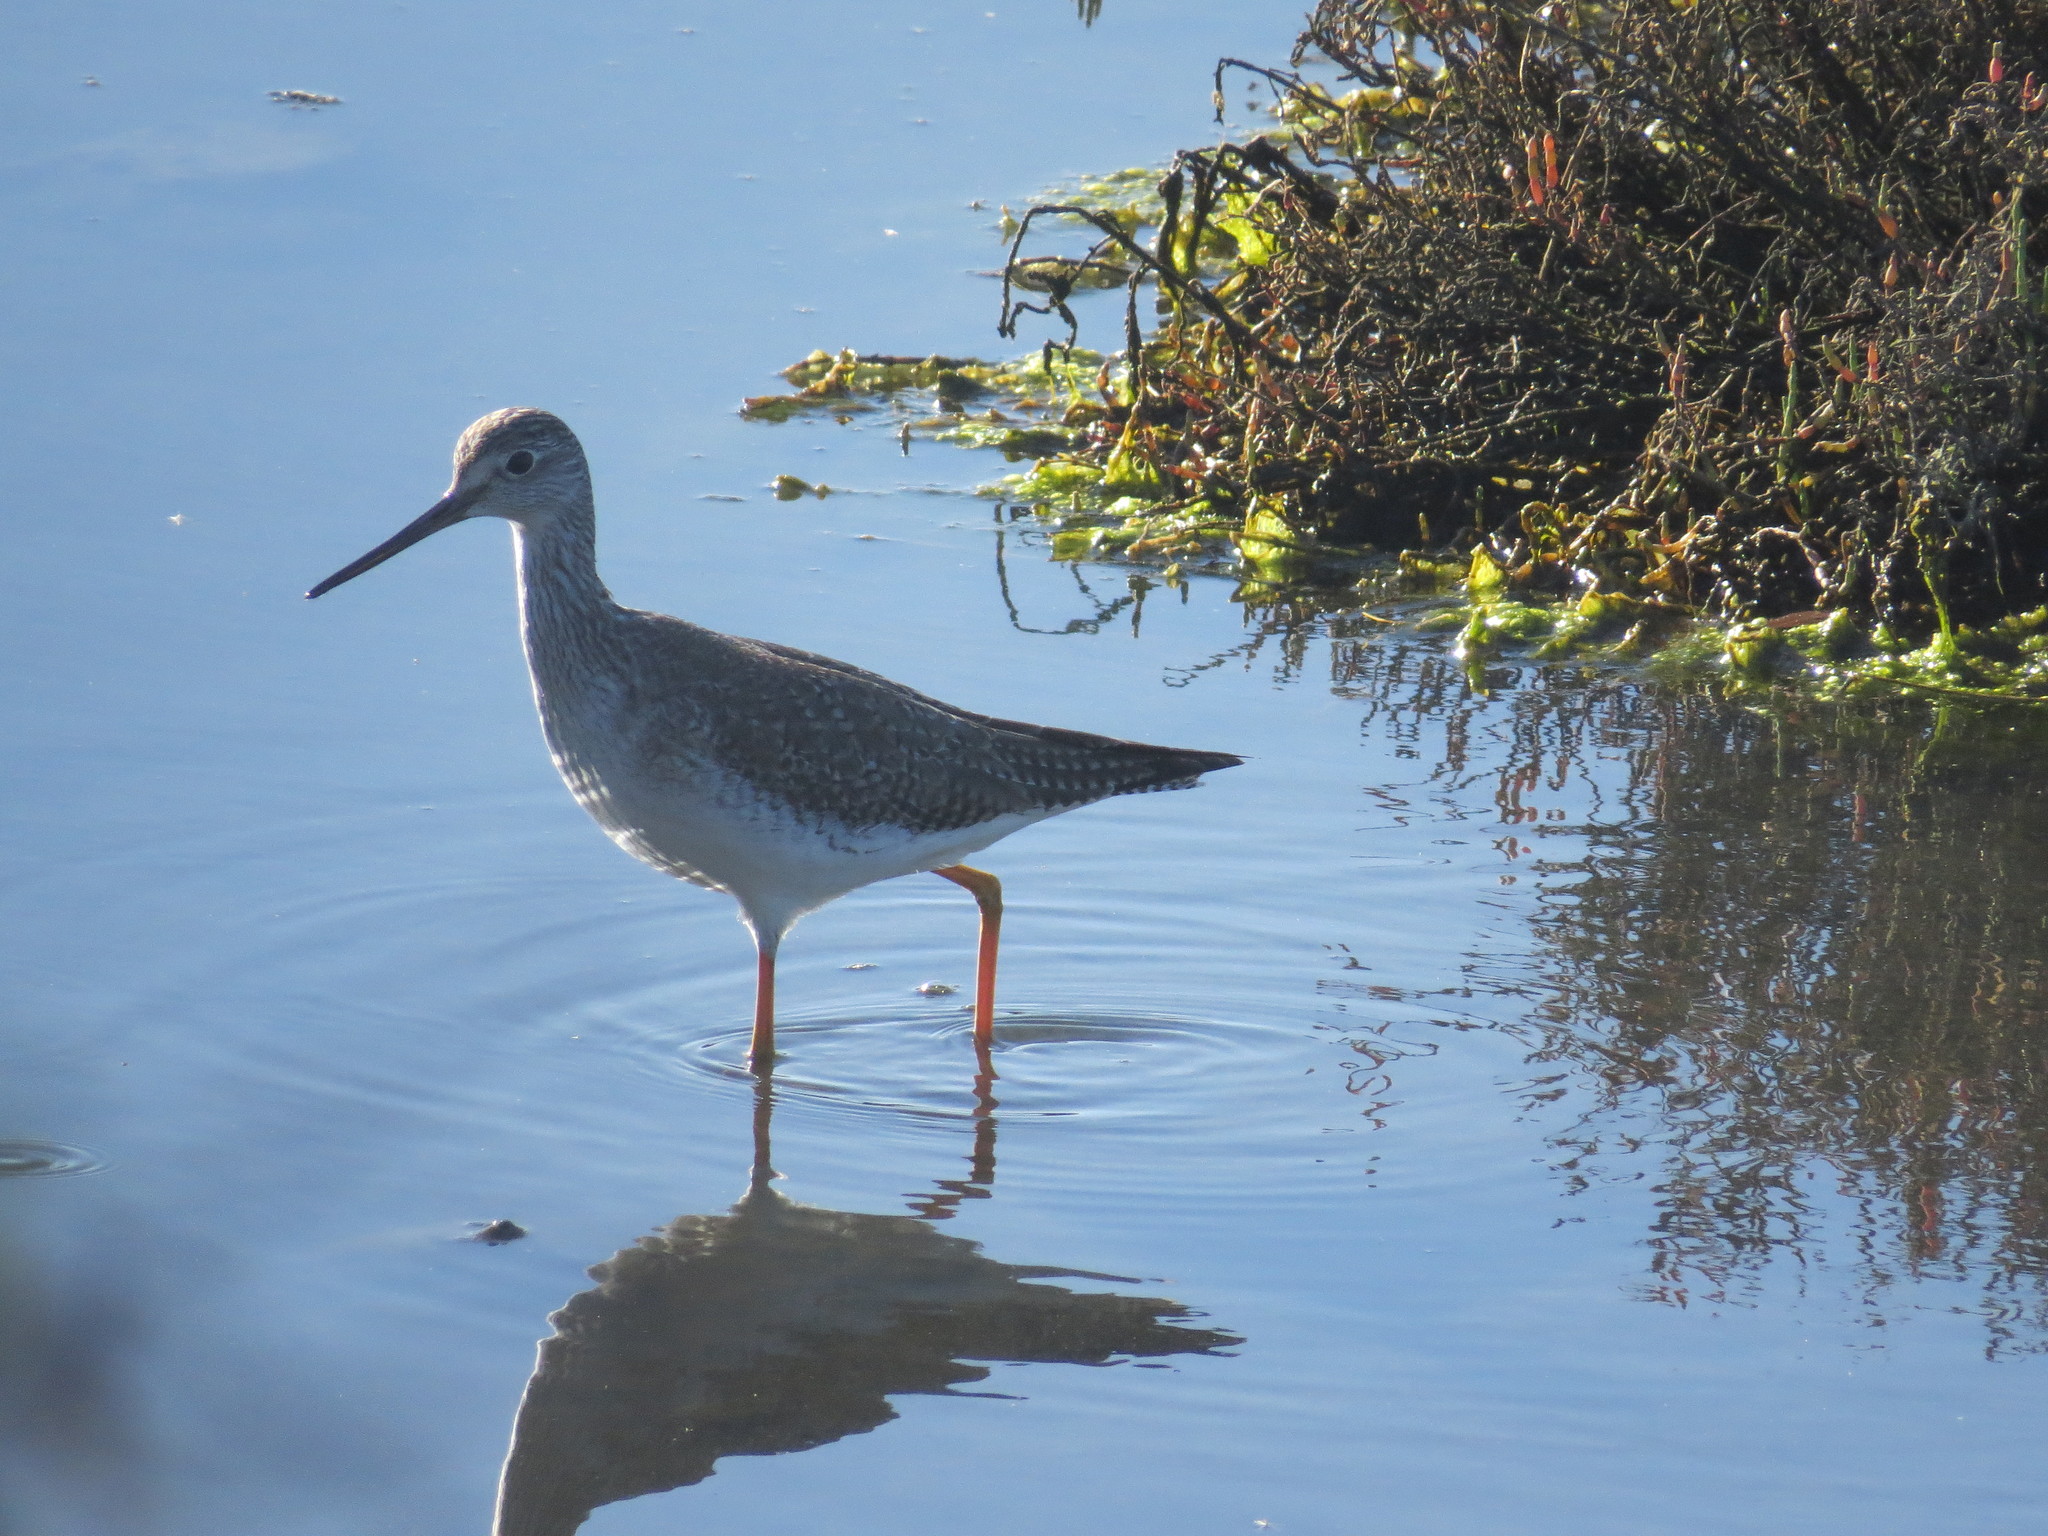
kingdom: Animalia
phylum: Chordata
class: Aves
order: Charadriiformes
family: Scolopacidae
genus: Tringa
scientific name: Tringa melanoleuca
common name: Greater yellowlegs
